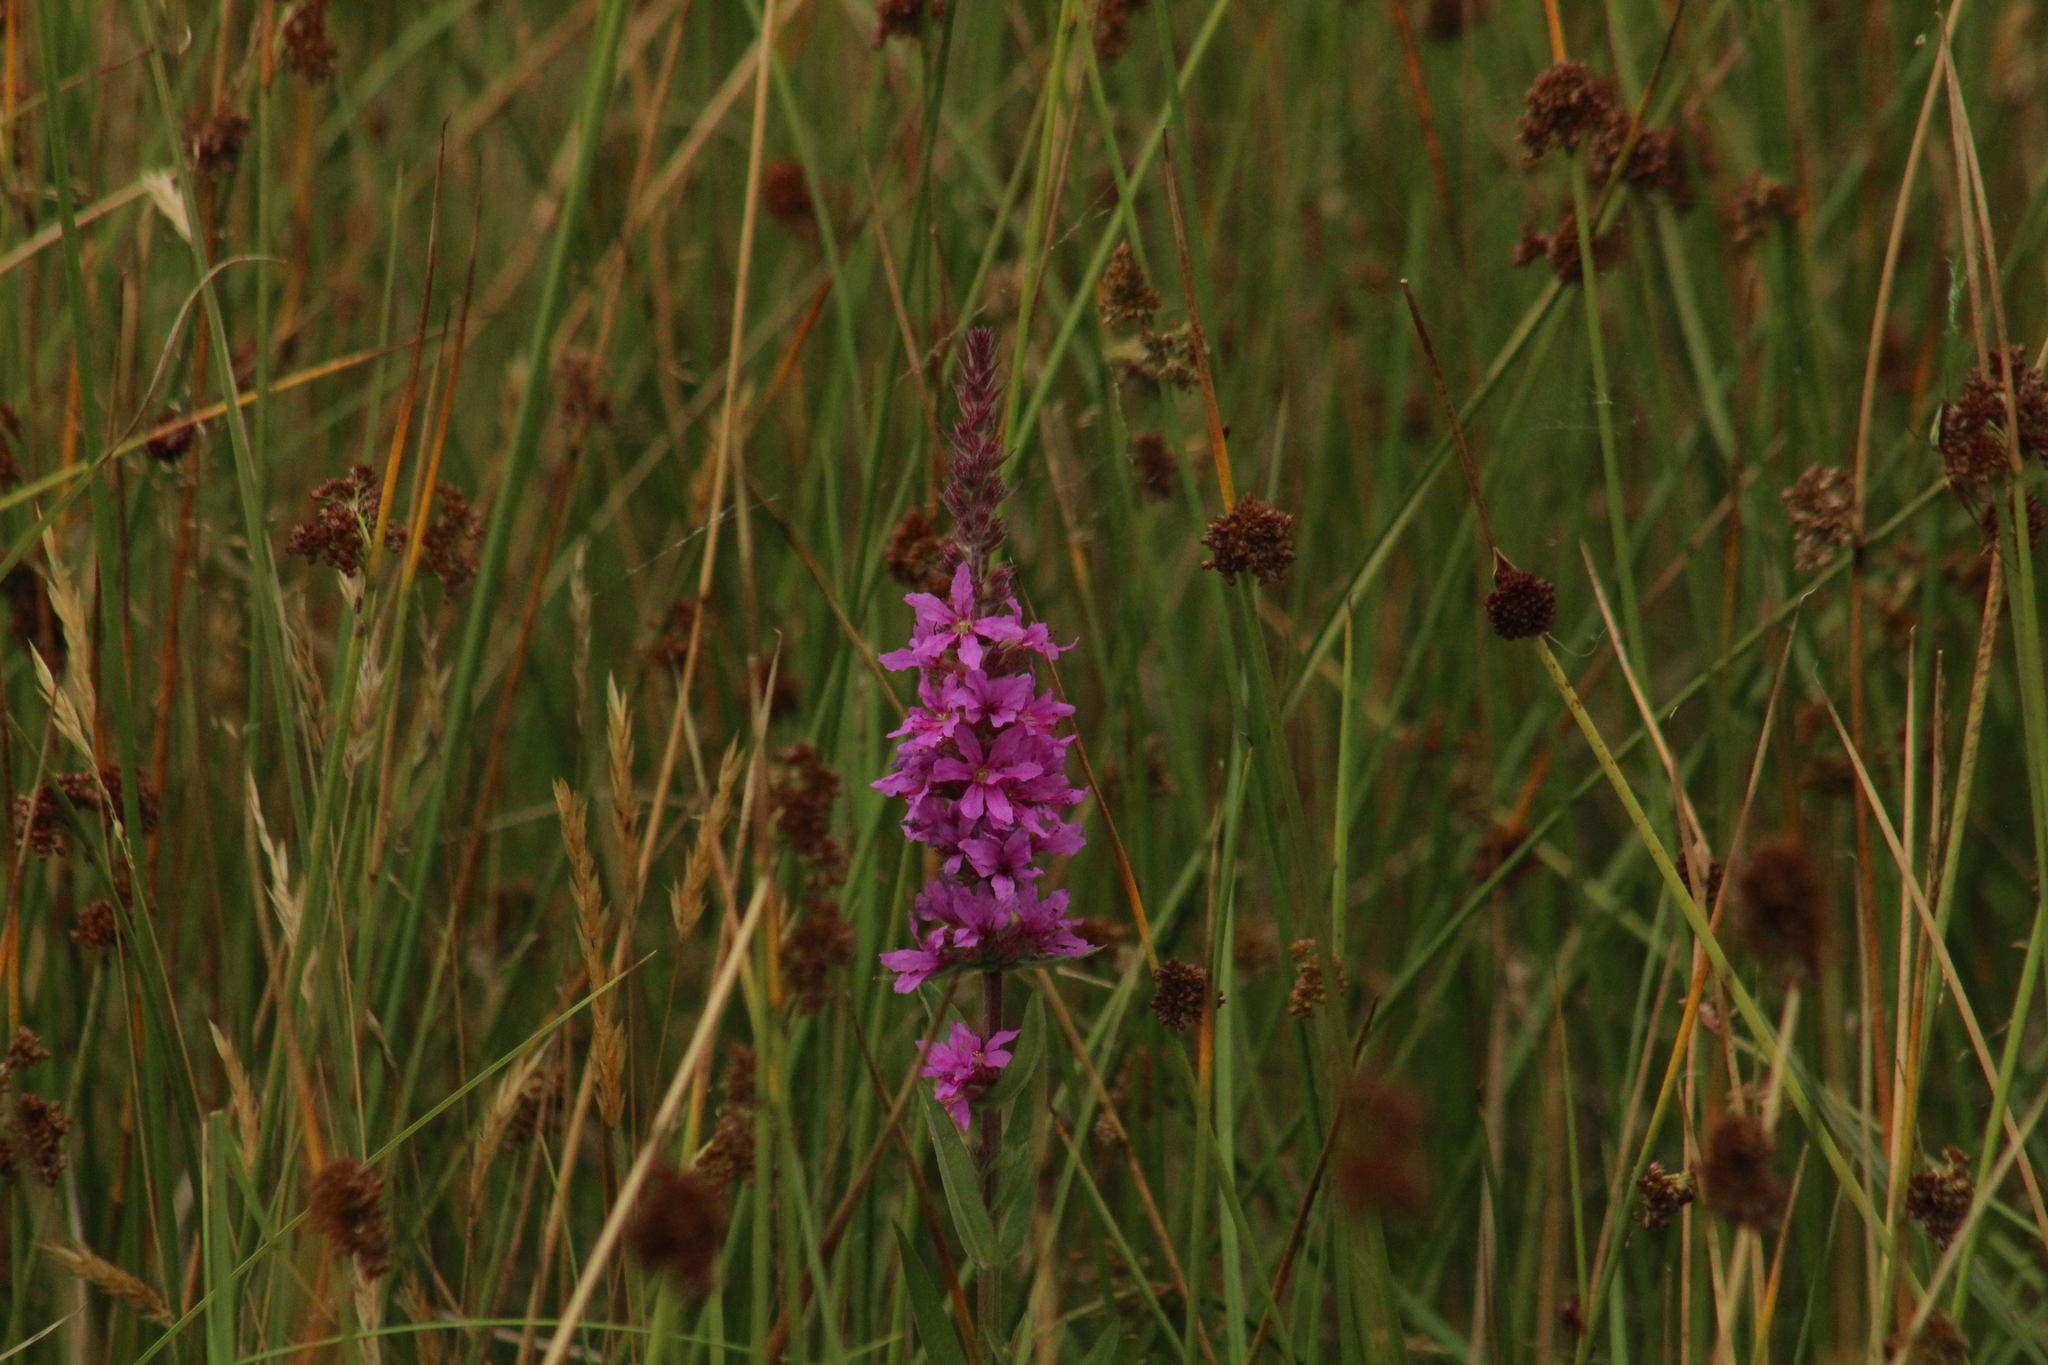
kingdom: Plantae
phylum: Tracheophyta
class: Magnoliopsida
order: Myrtales
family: Lythraceae
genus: Lythrum
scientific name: Lythrum salicaria
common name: Purple loosestrife
